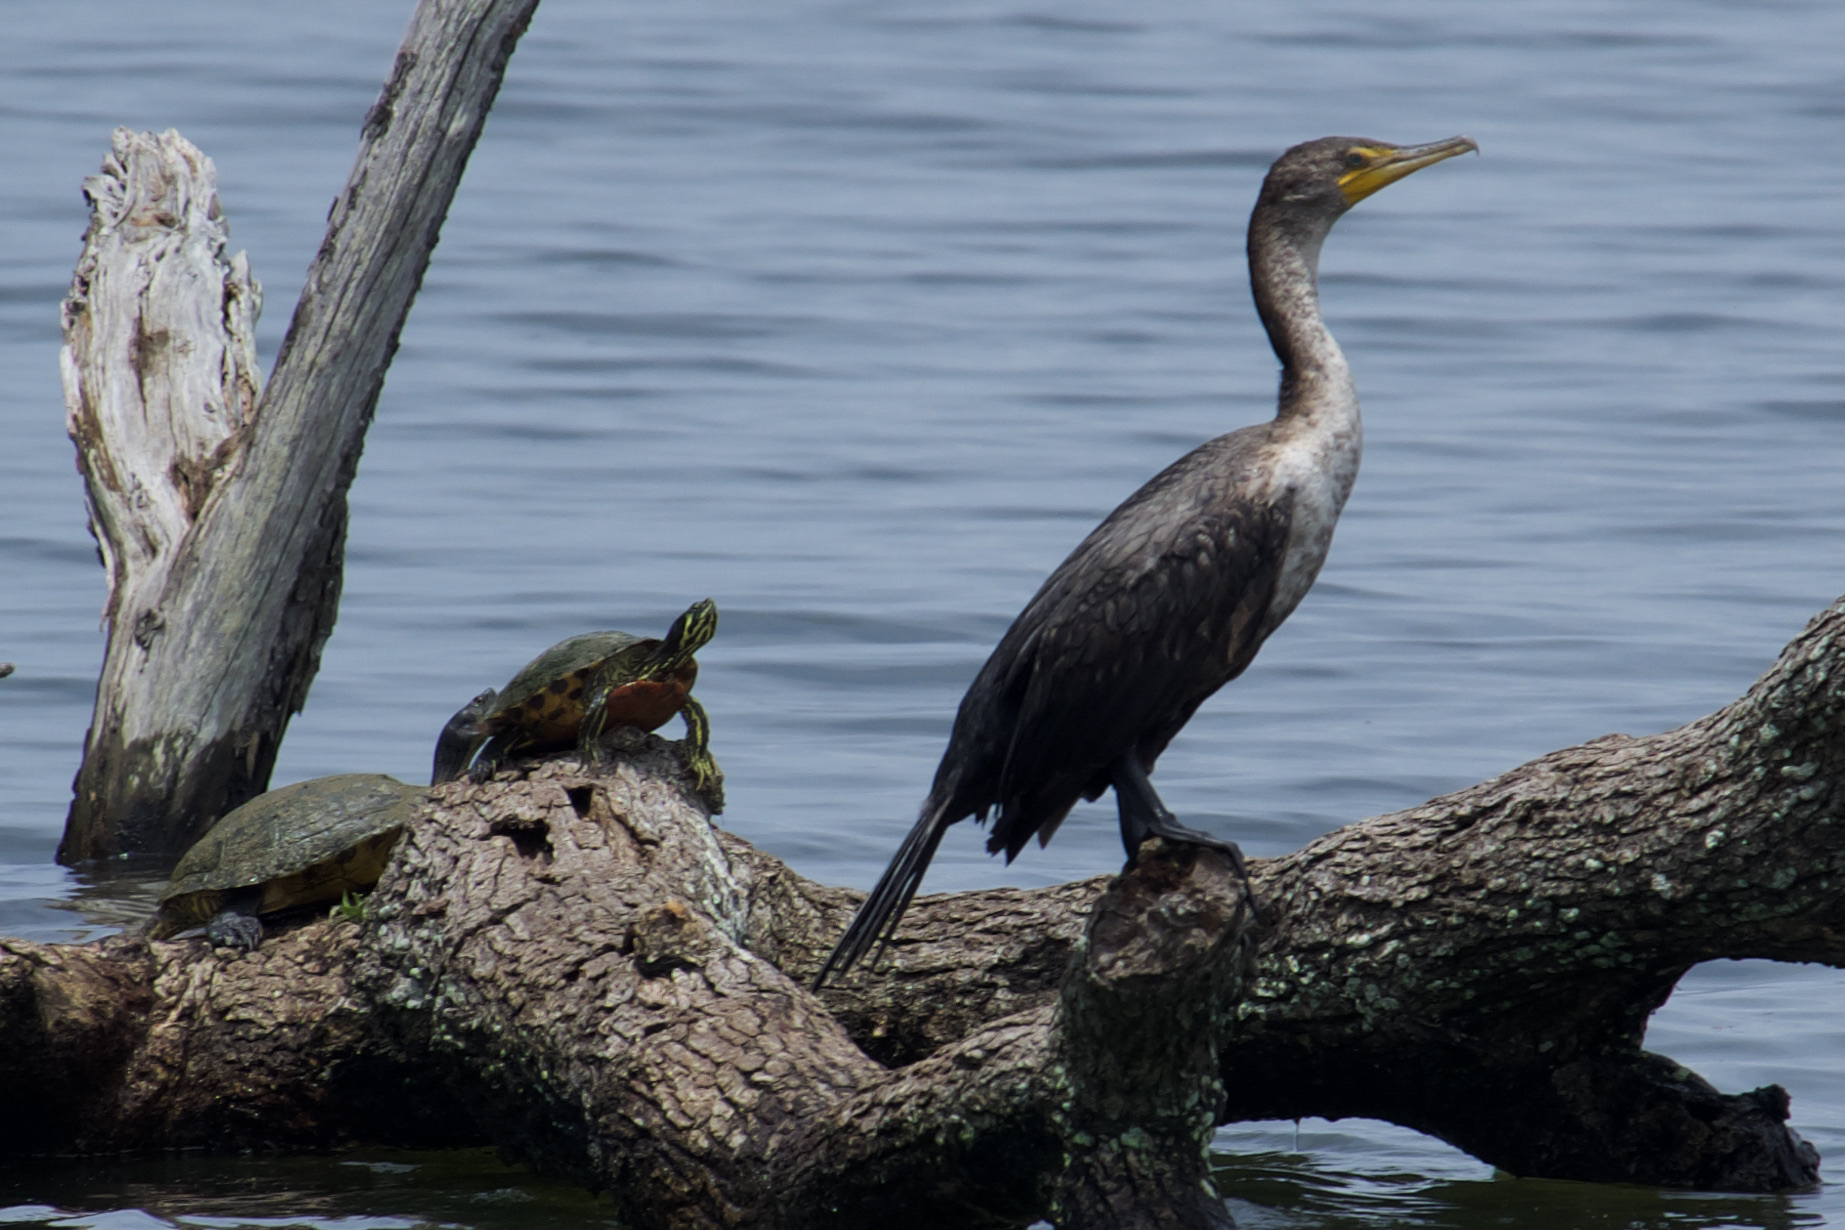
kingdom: Animalia
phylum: Chordata
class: Aves
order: Suliformes
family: Phalacrocoracidae
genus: Phalacrocorax
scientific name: Phalacrocorax auritus
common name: Double-crested cormorant
